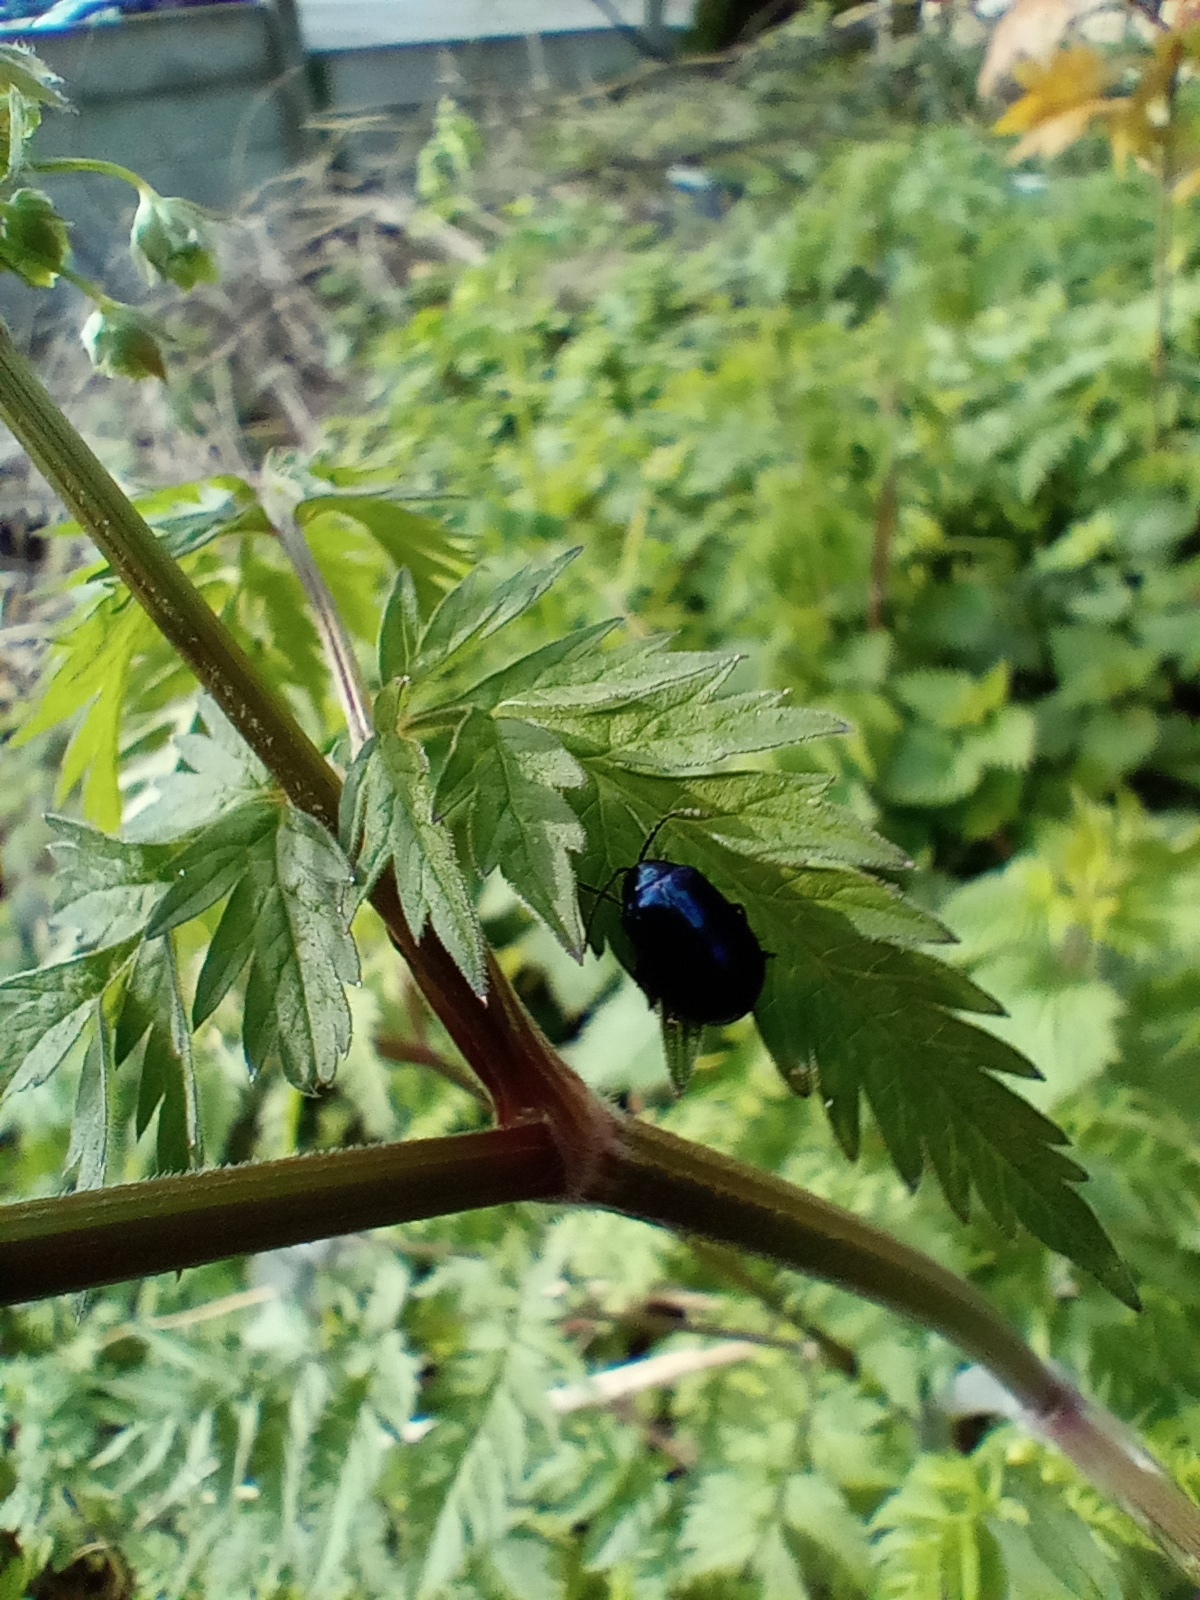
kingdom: Animalia
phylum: Arthropoda
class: Insecta
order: Coleoptera
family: Chrysomelidae
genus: Agelastica
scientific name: Agelastica alni
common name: Alder leaf beetle
